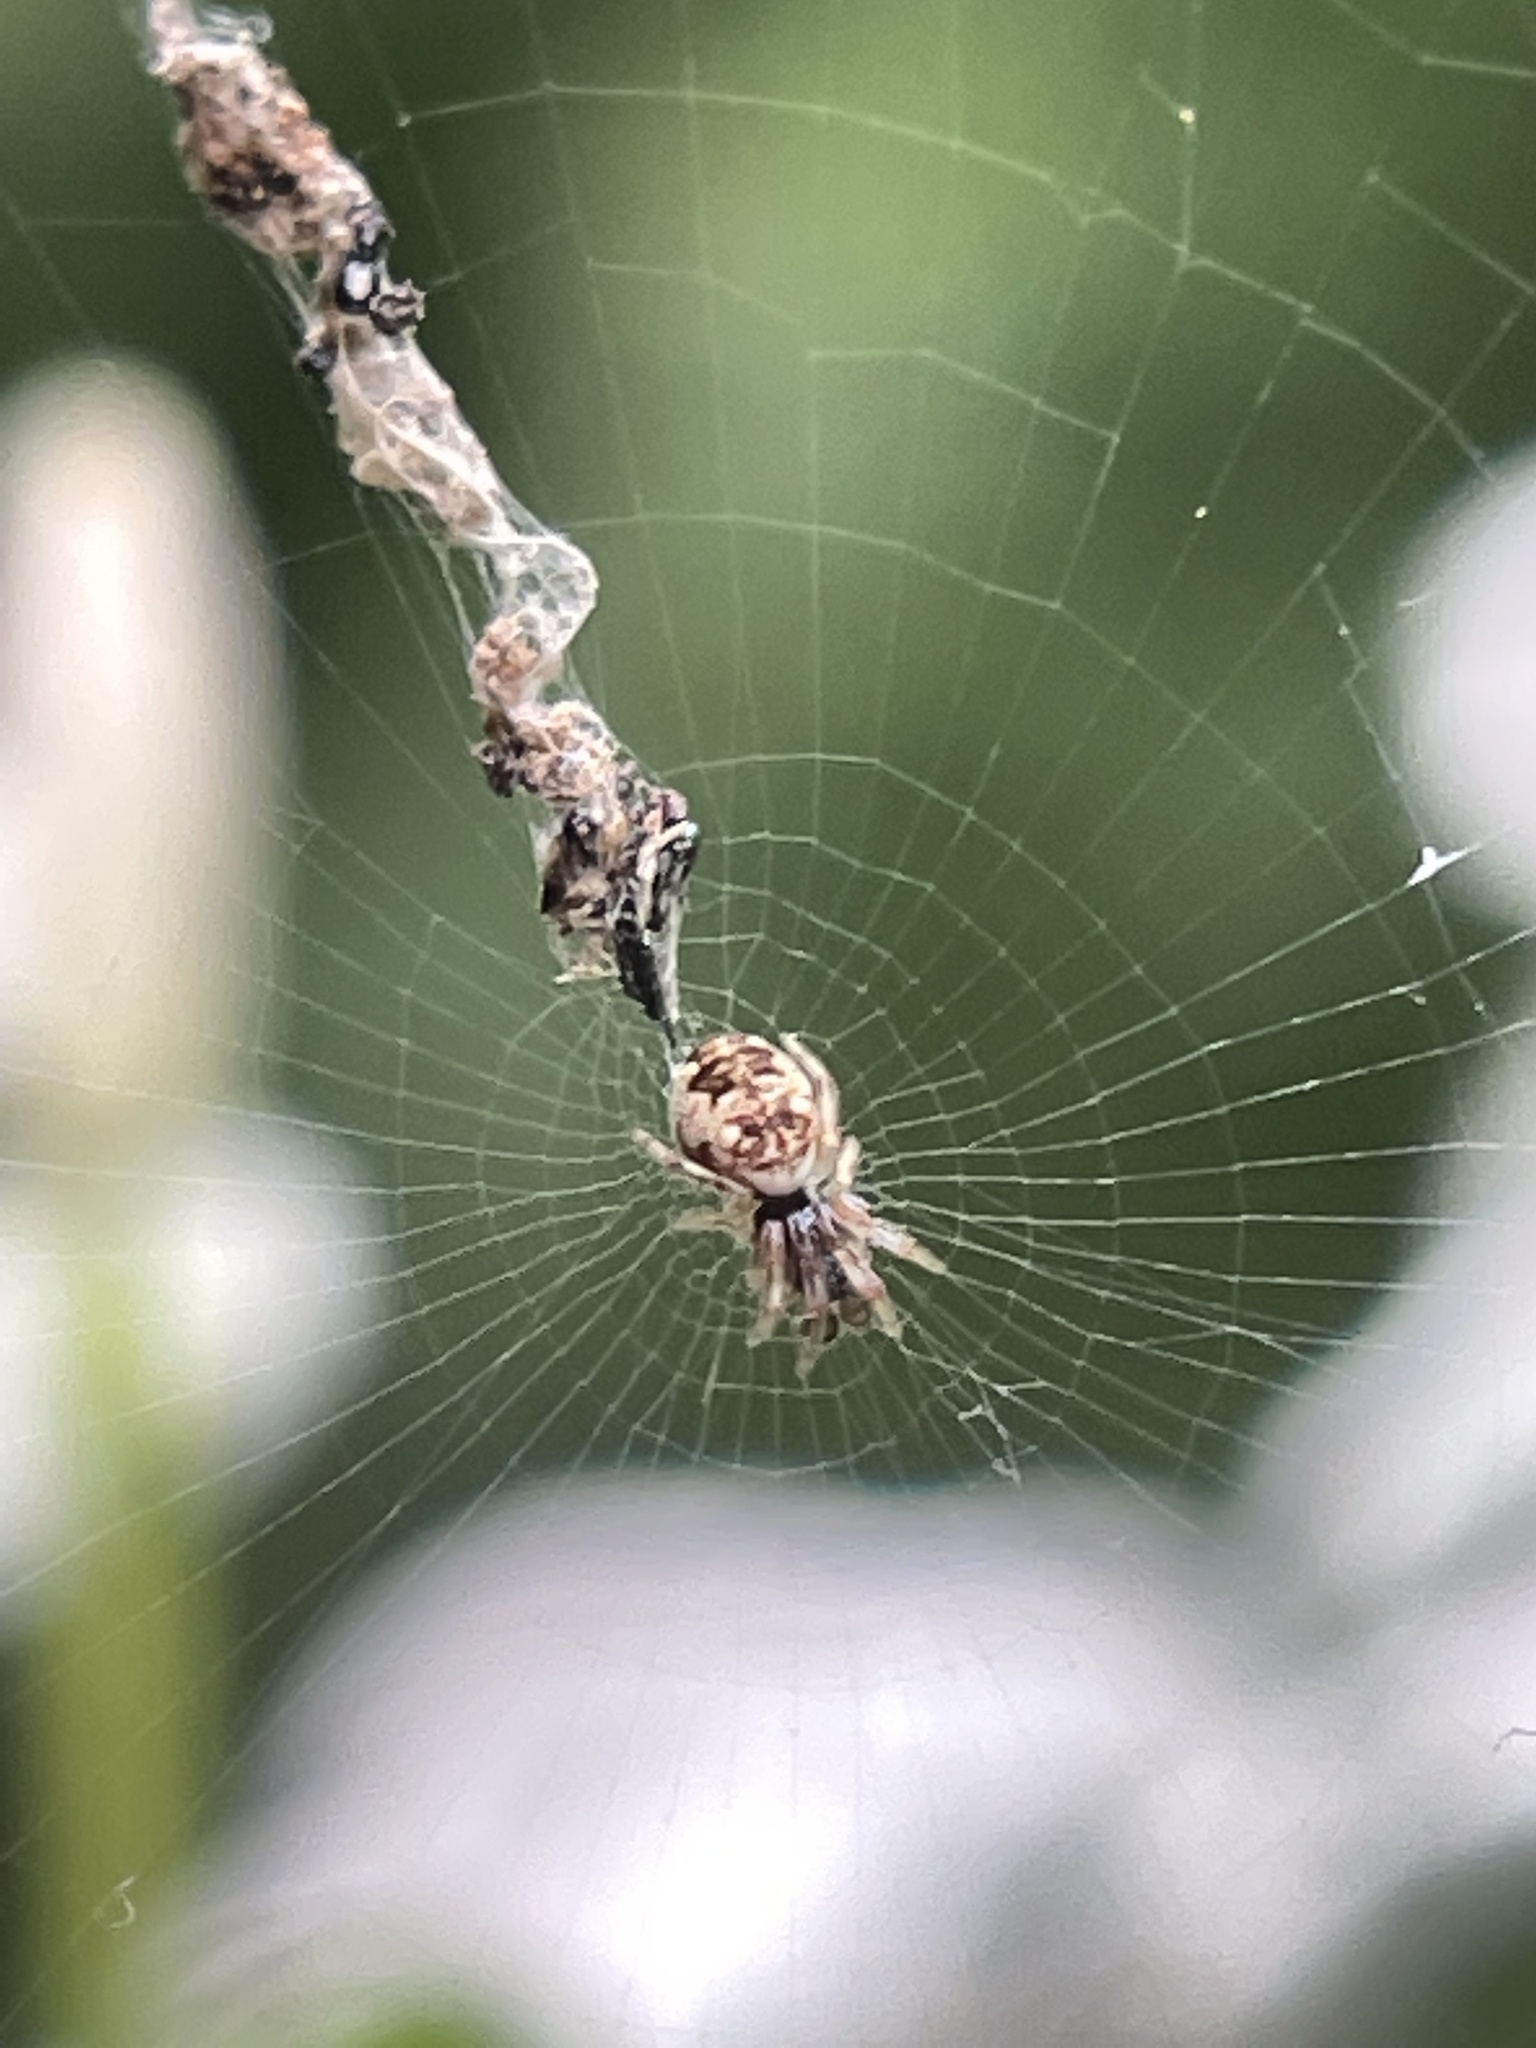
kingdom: Animalia
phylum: Arthropoda
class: Arachnida
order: Araneae
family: Araneidae
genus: Cyclosa
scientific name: Cyclosa turbinata
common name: Orb weavers
